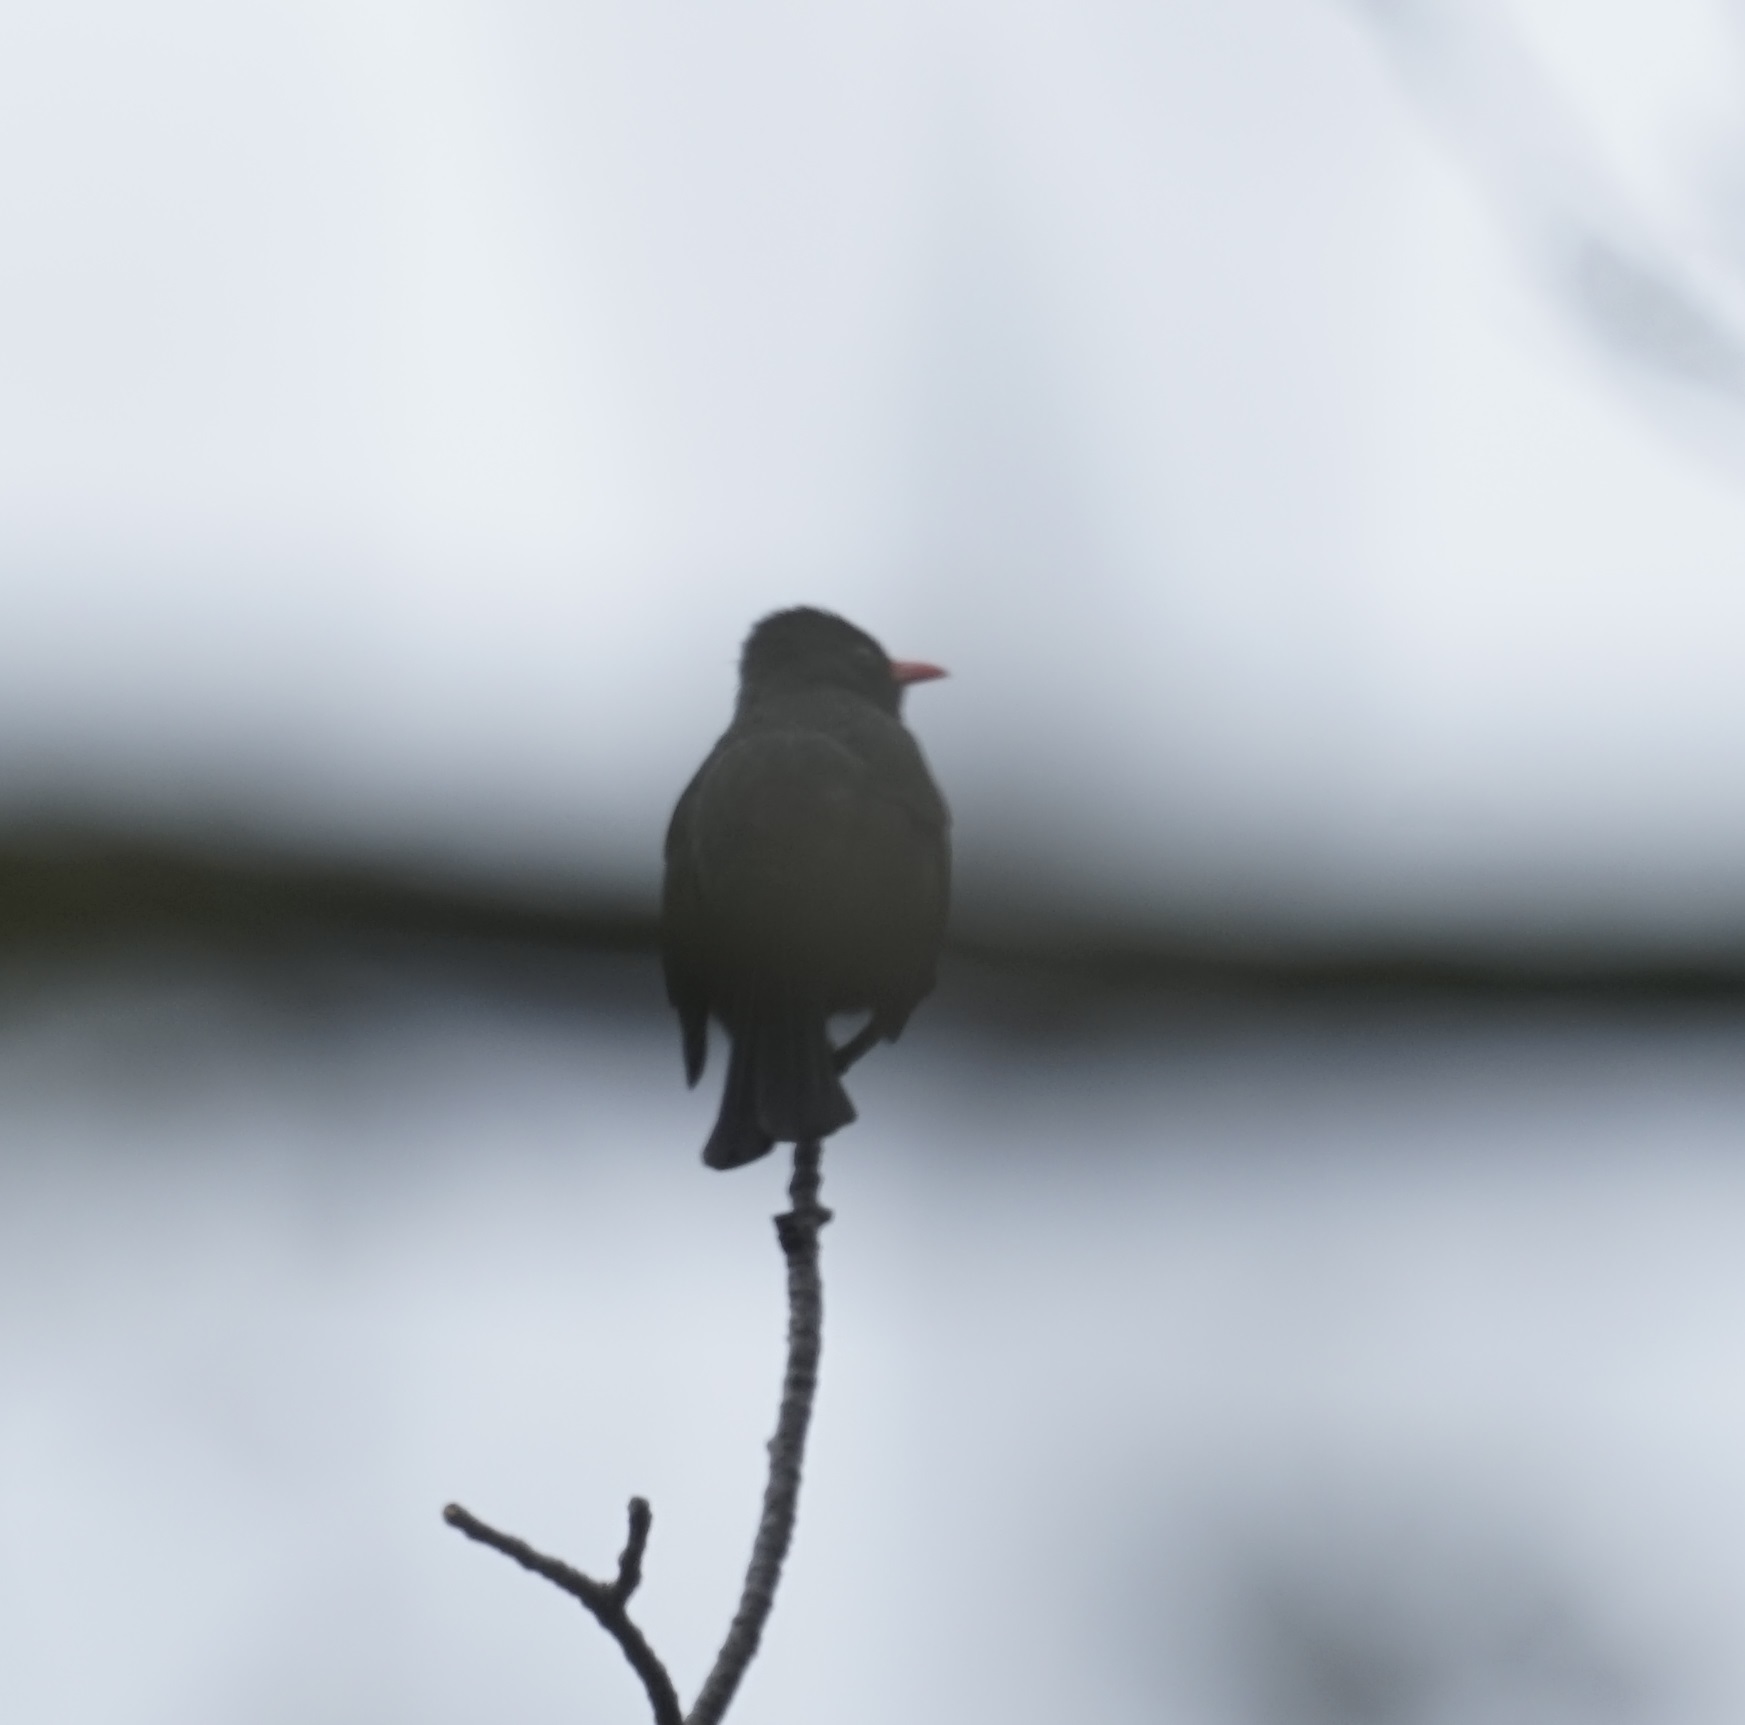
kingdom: Animalia
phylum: Chordata
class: Aves
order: Passeriformes
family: Pycnonotidae
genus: Hypsipetes
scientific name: Hypsipetes leucocephalus
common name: Black bulbul
